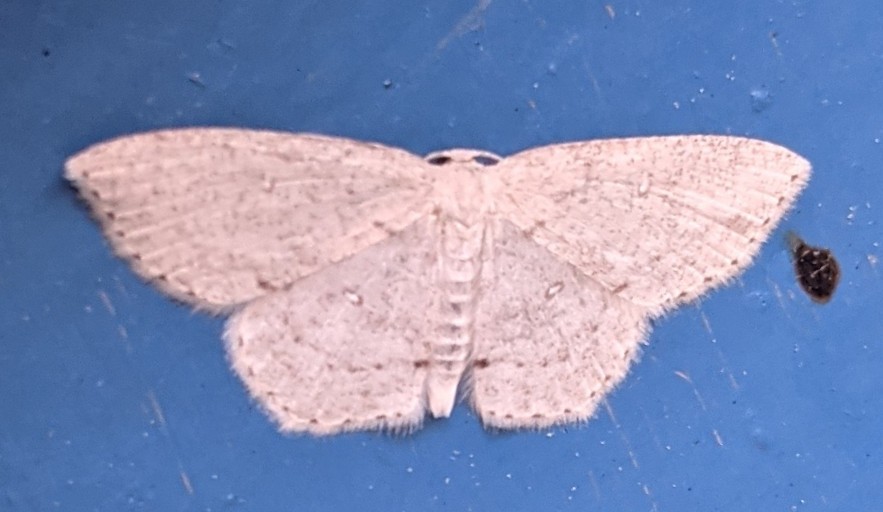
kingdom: Animalia
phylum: Arthropoda
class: Insecta
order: Lepidoptera
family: Geometridae
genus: Cyclophora
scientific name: Cyclophora pendulinaria
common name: Sweet fern geometer
